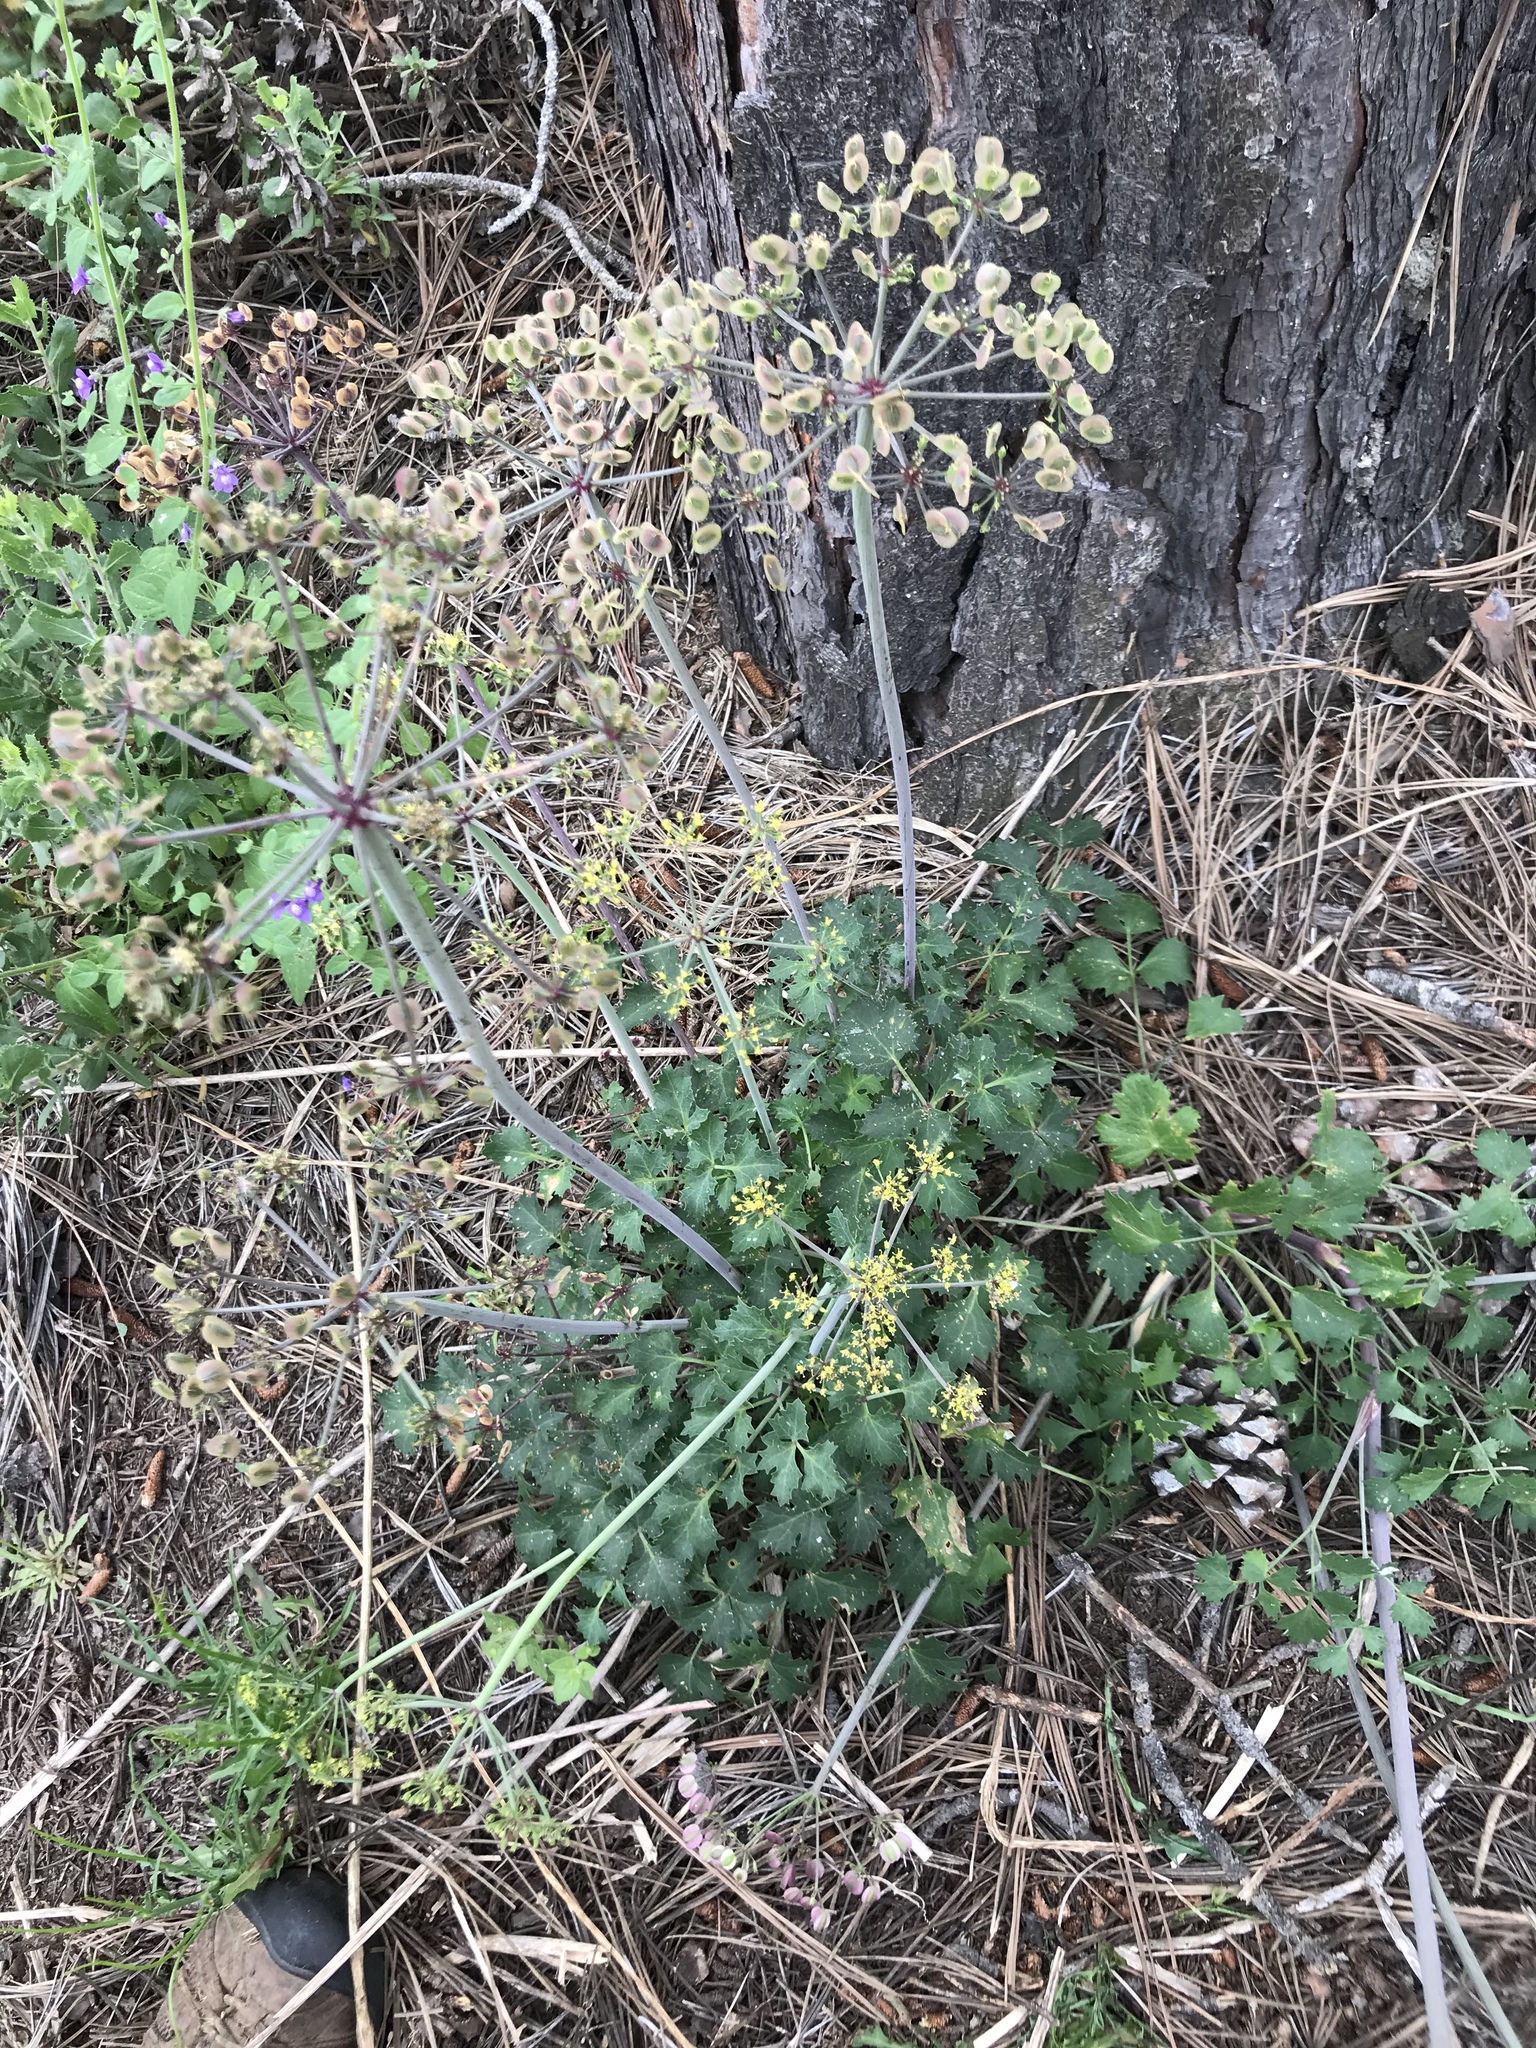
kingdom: Plantae
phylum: Tracheophyta
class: Magnoliopsida
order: Apiales
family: Apiaceae
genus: Lomatium
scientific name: Lomatium lucidum
